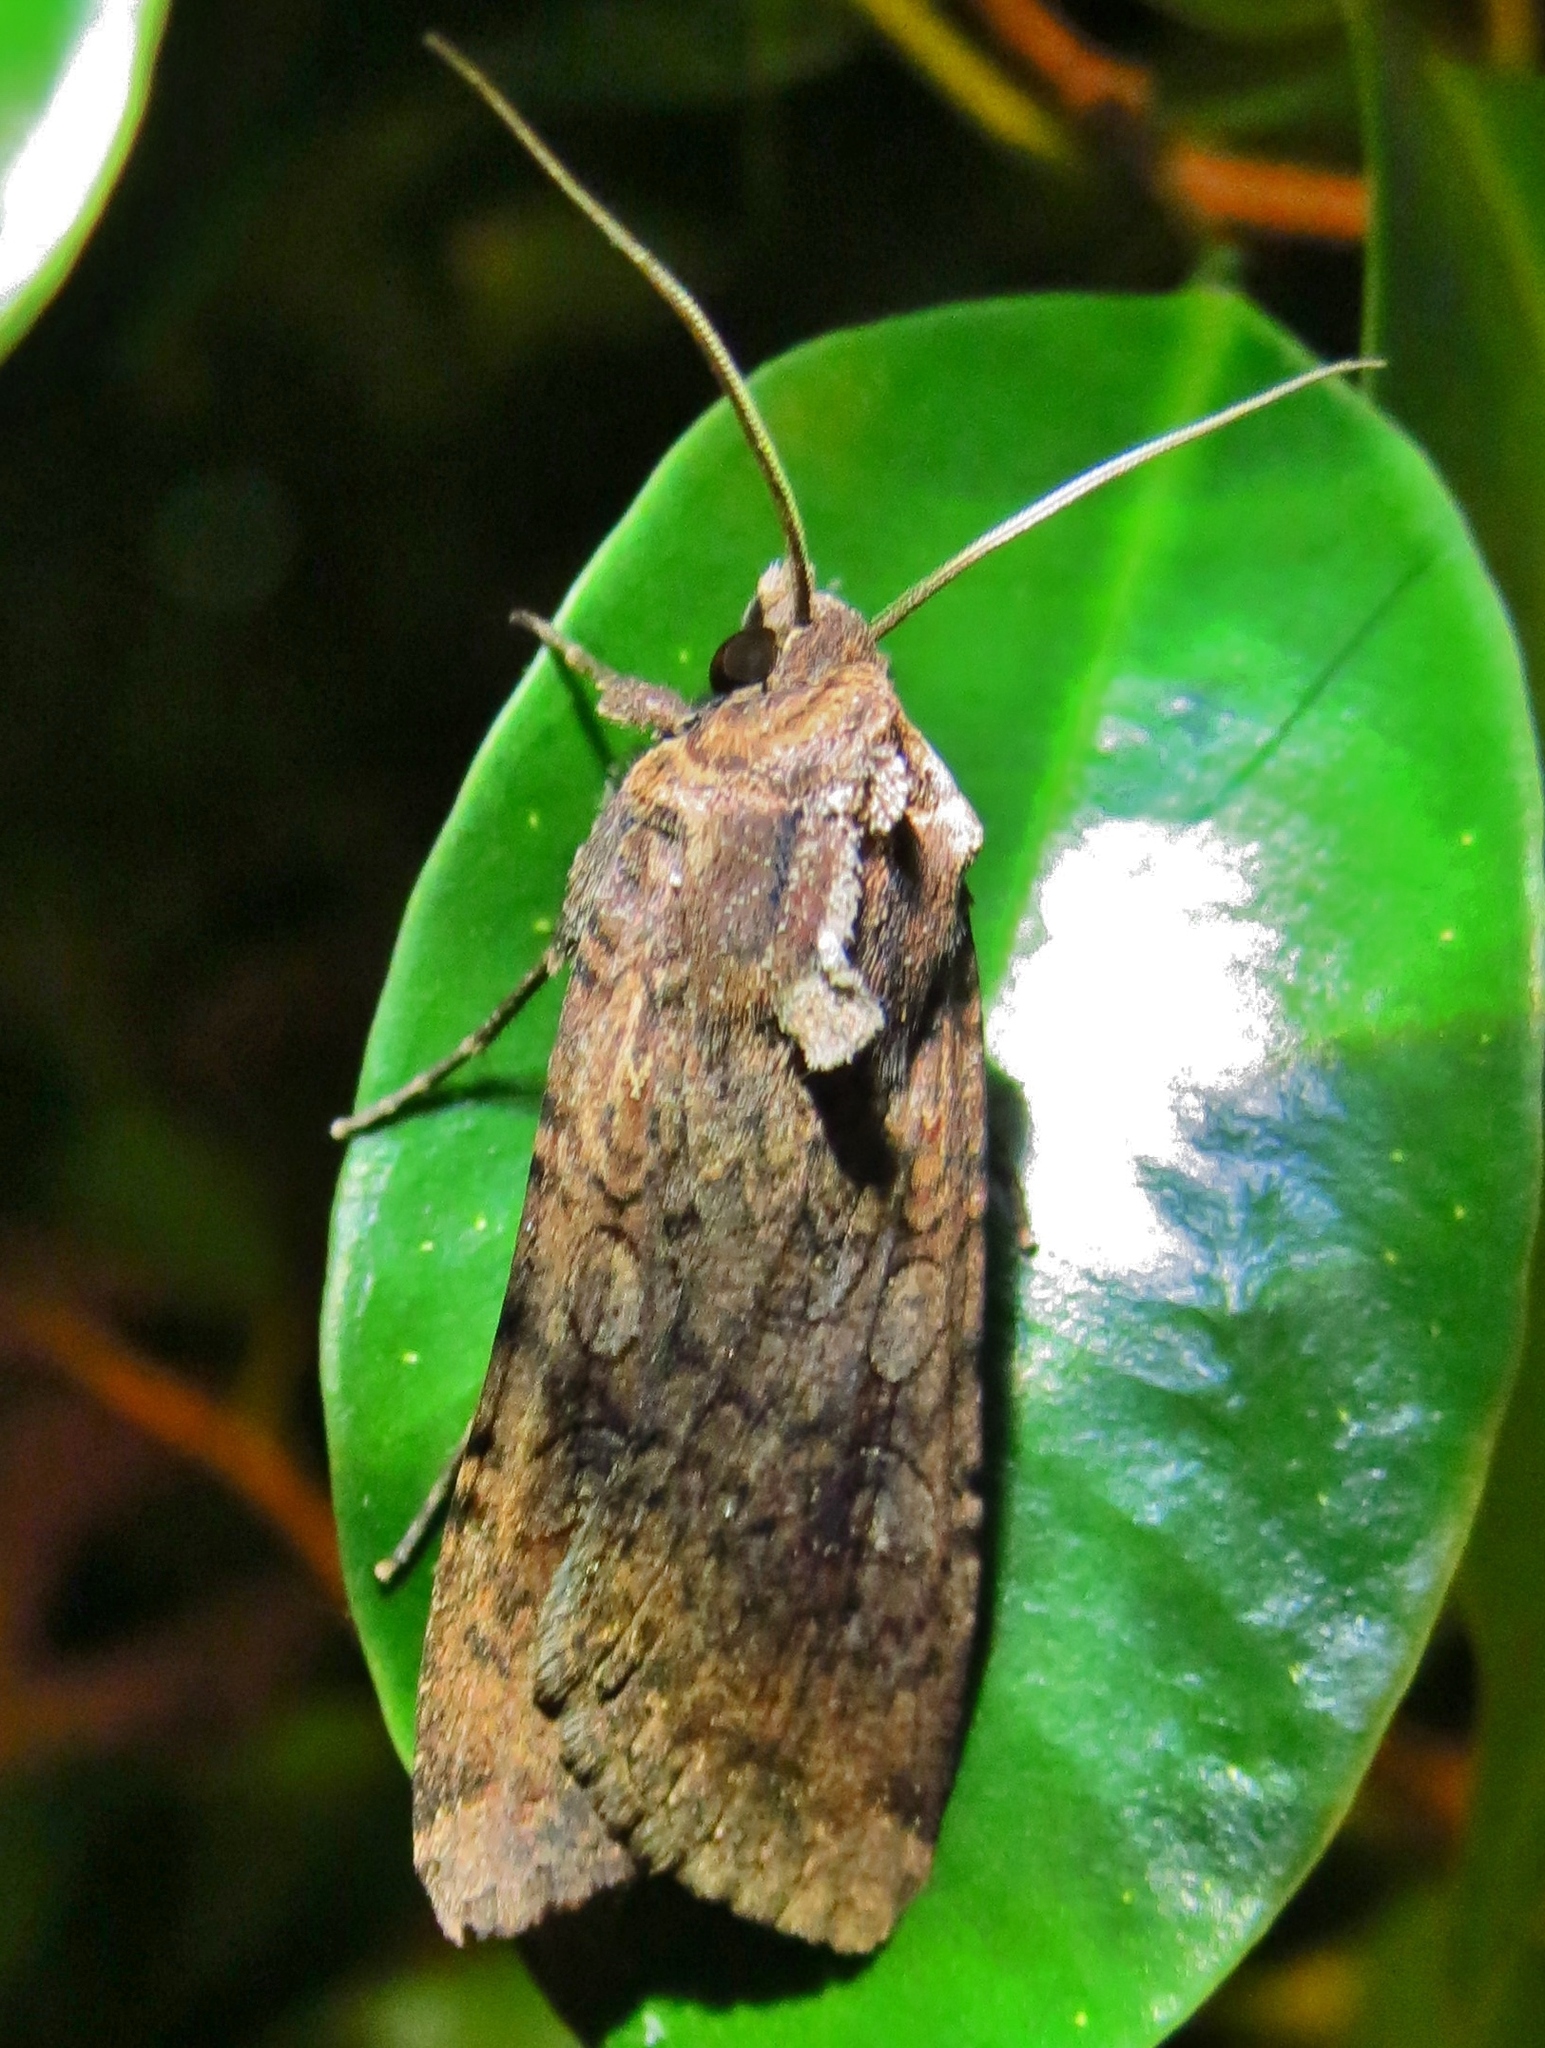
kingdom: Animalia
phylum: Arthropoda
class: Insecta
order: Lepidoptera
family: Noctuidae
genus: Peridroma
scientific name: Peridroma saucia
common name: Pearly underwing
